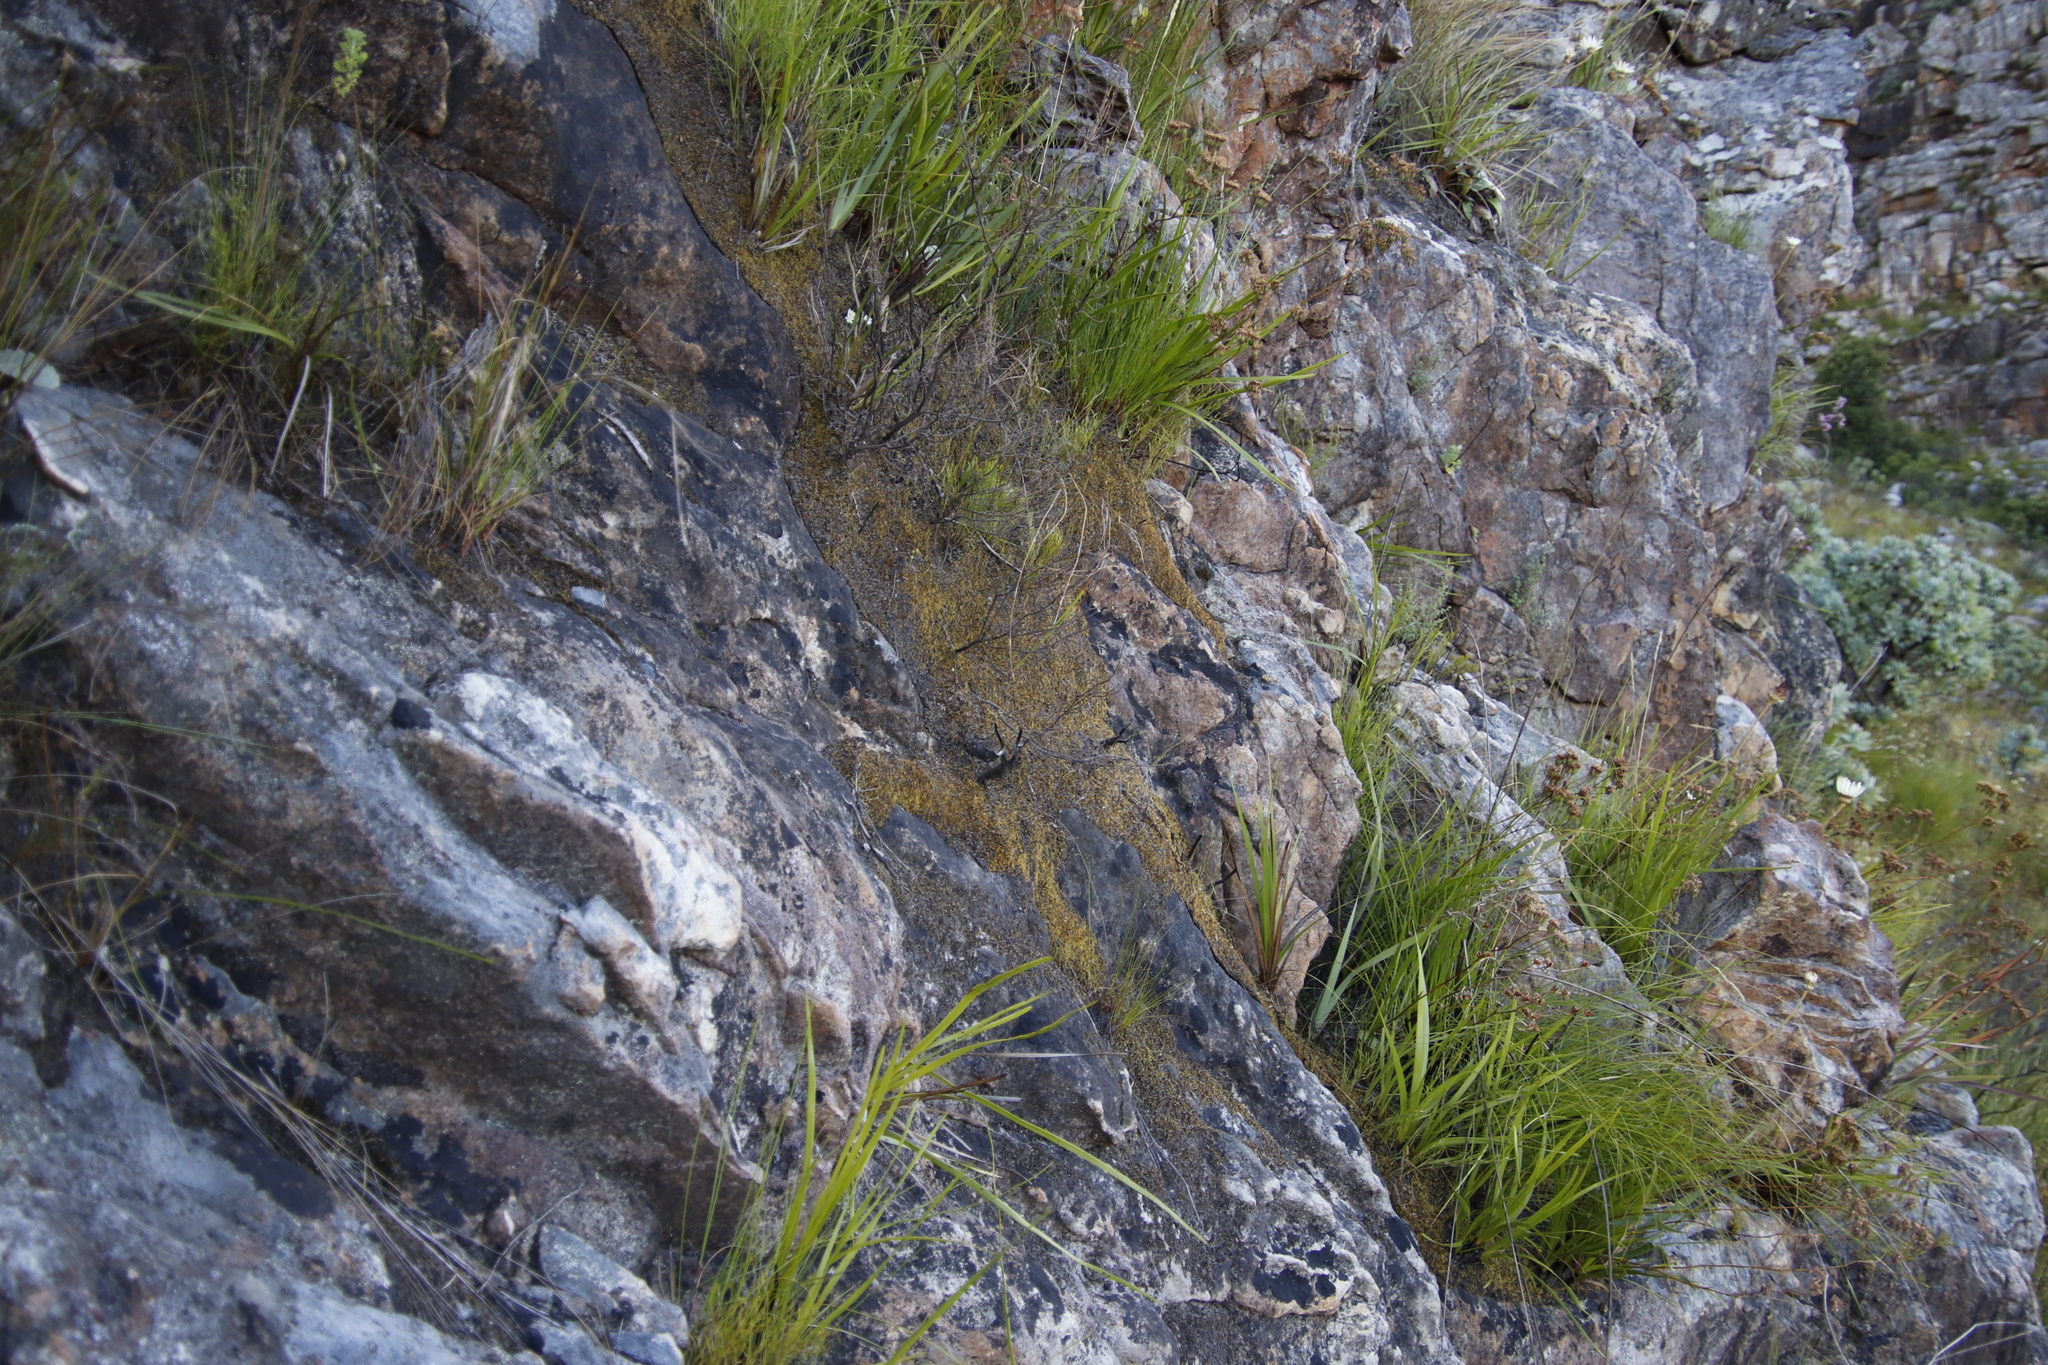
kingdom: Plantae
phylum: Bryophyta
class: Bryopsida
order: Bartramiales
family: Bartramiaceae
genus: Breutelia
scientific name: Breutelia substricta
